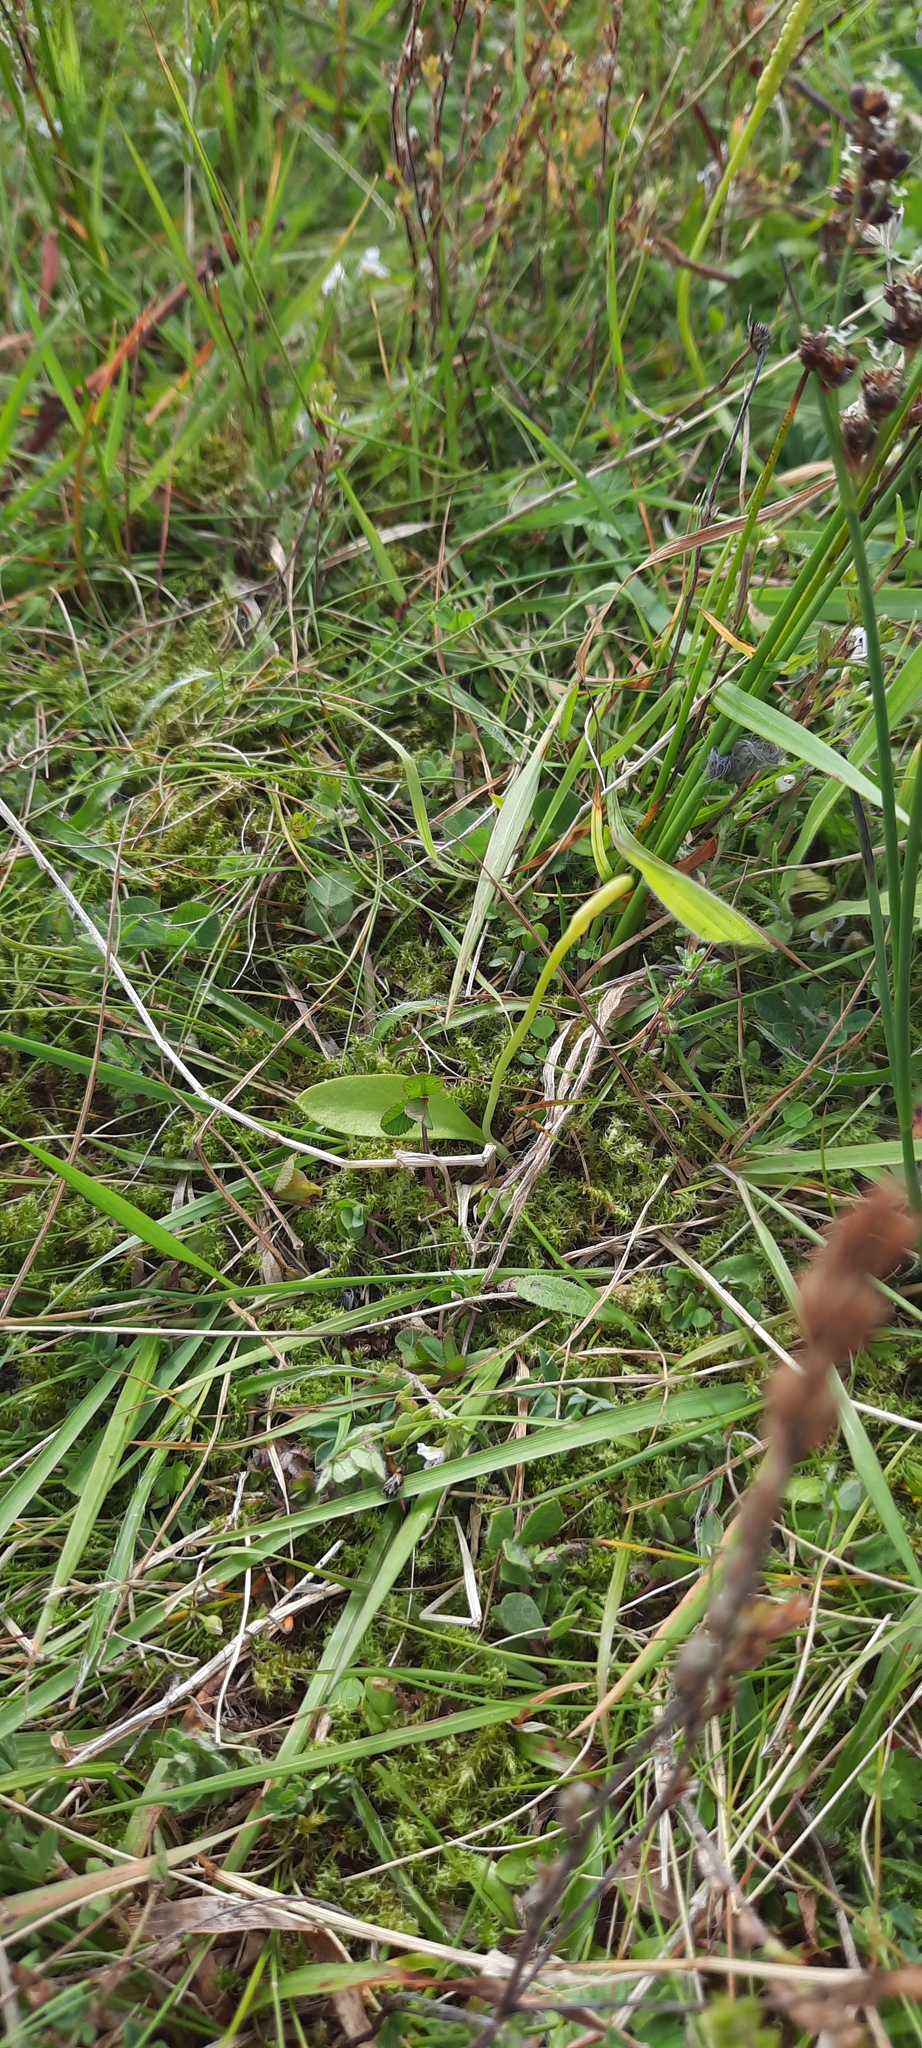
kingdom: Plantae
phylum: Tracheophyta
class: Polypodiopsida
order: Ophioglossales
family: Ophioglossaceae
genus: Ophioglossum
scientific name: Ophioglossum vulgatum
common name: Adder's-tongue
